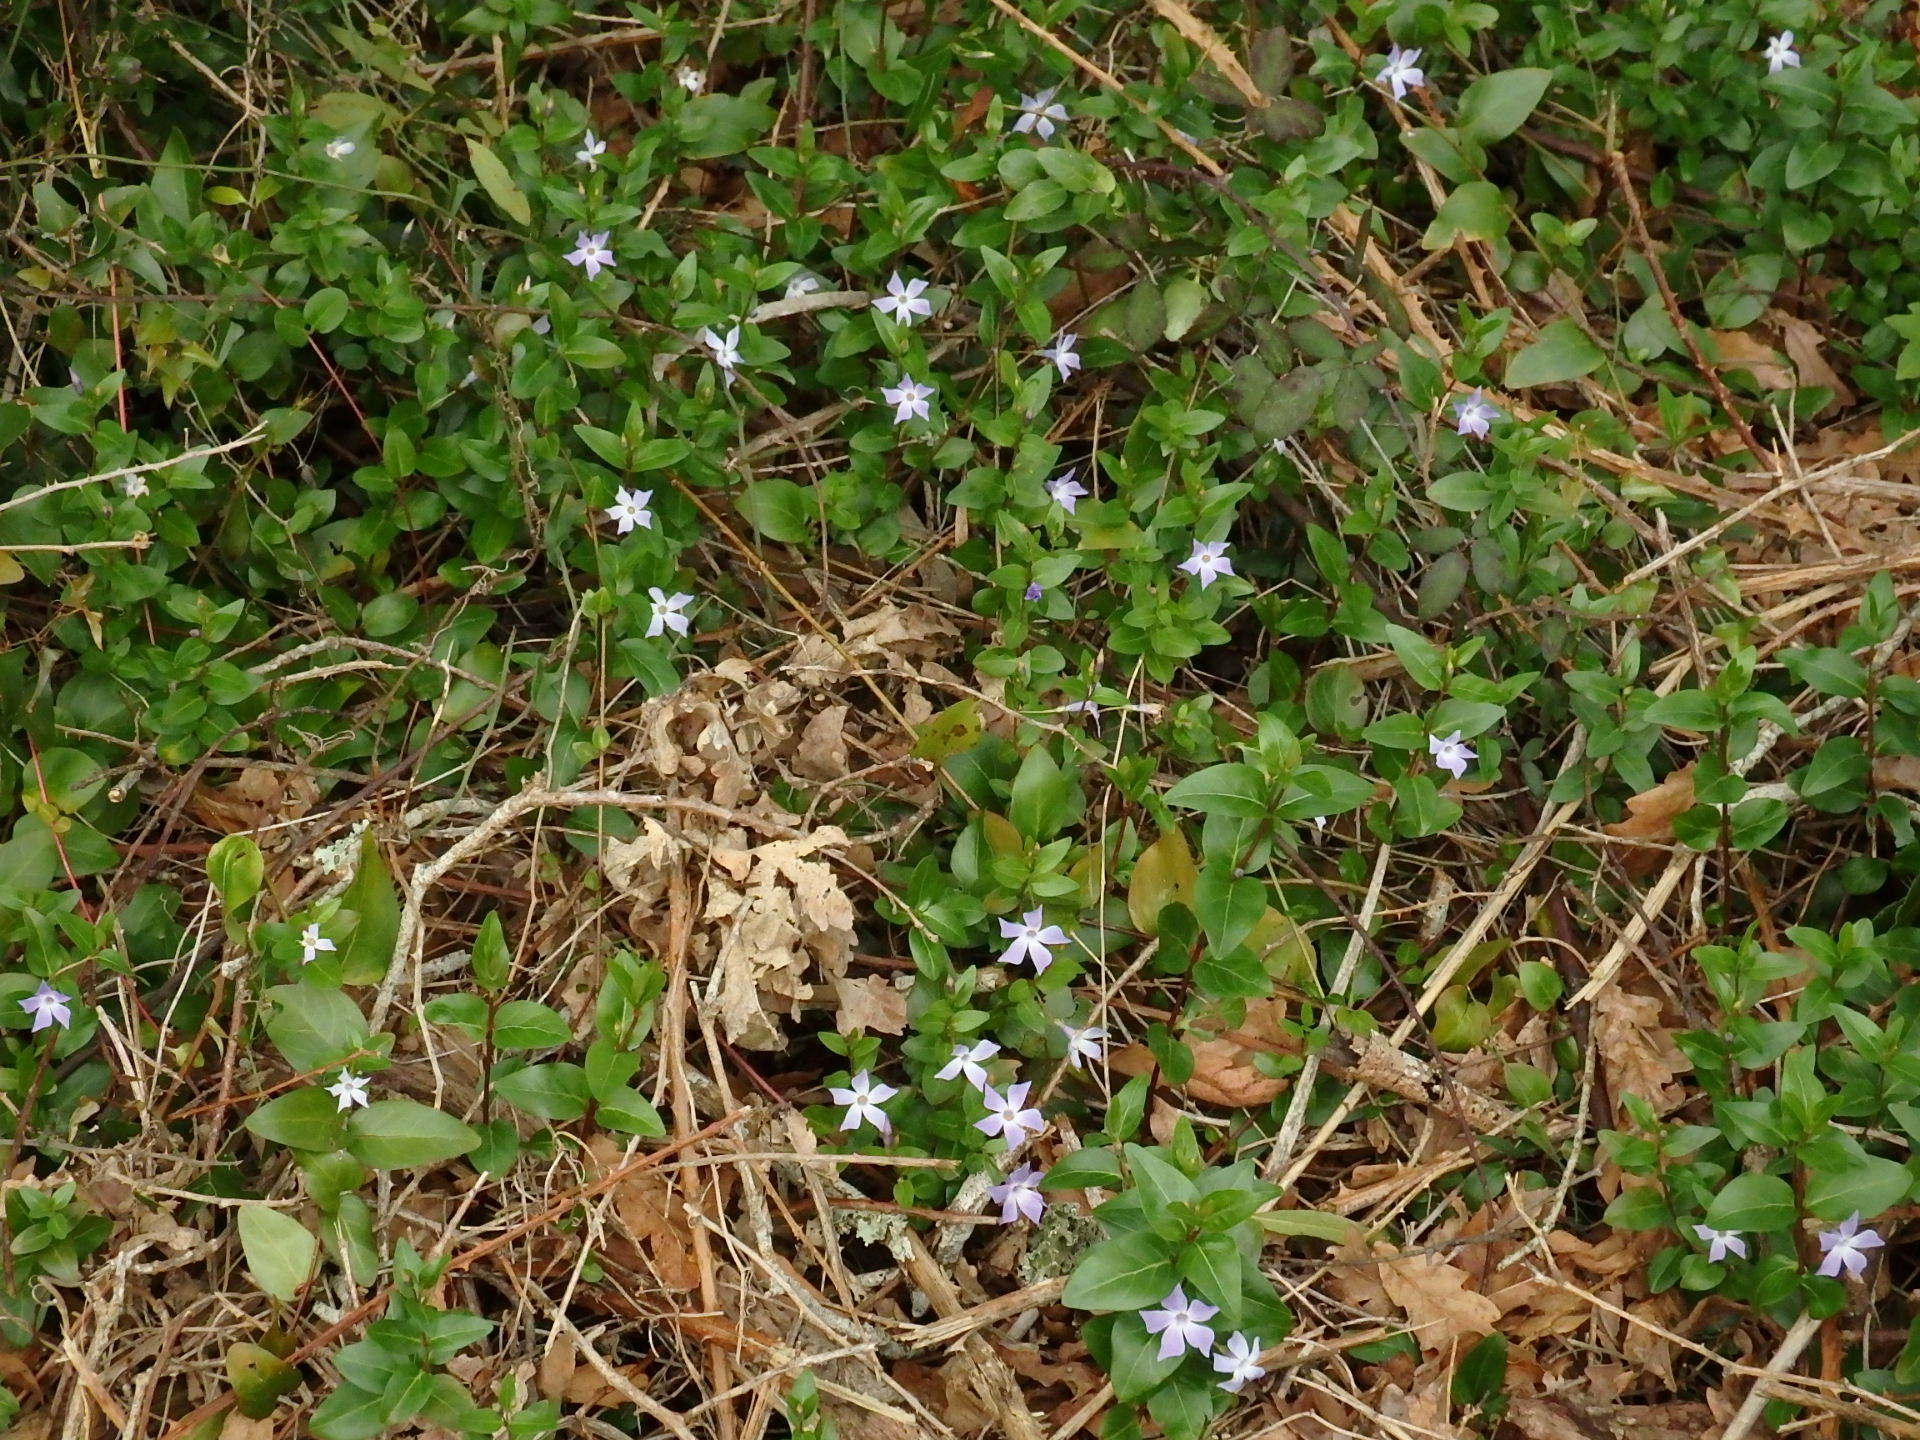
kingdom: Plantae
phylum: Tracheophyta
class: Magnoliopsida
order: Gentianales
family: Apocynaceae
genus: Vinca
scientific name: Vinca difformis
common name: Intermediate periwinkle
